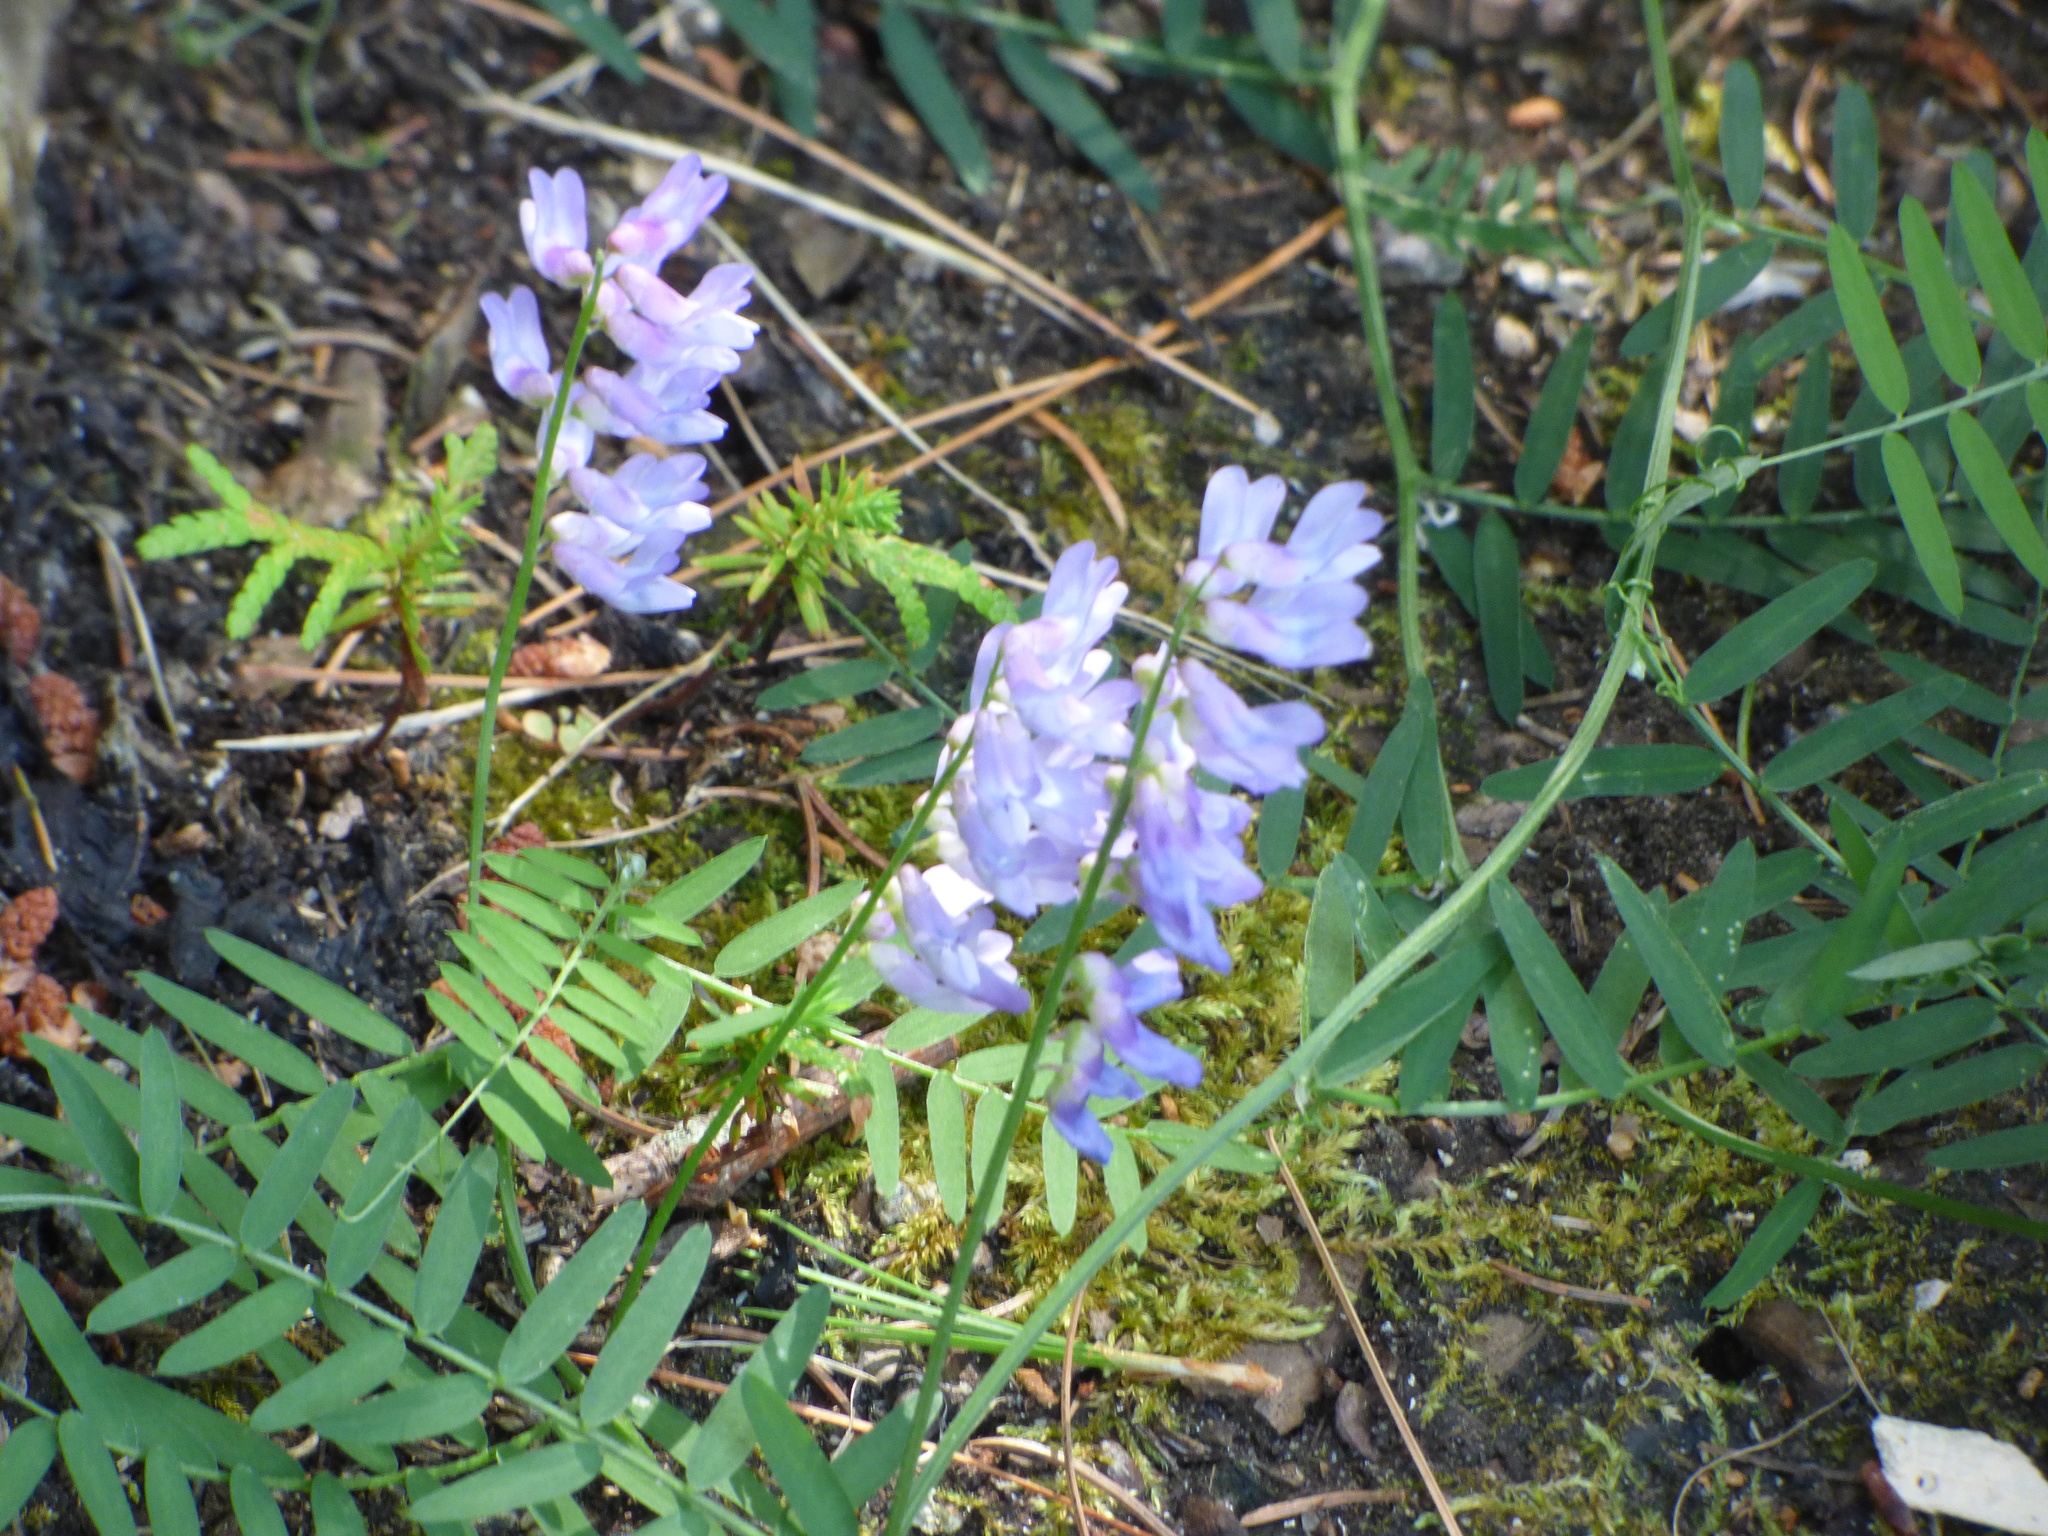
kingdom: Plantae
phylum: Tracheophyta
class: Magnoliopsida
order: Fabales
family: Fabaceae
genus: Vicia
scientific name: Vicia cracca
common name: Bird vetch
